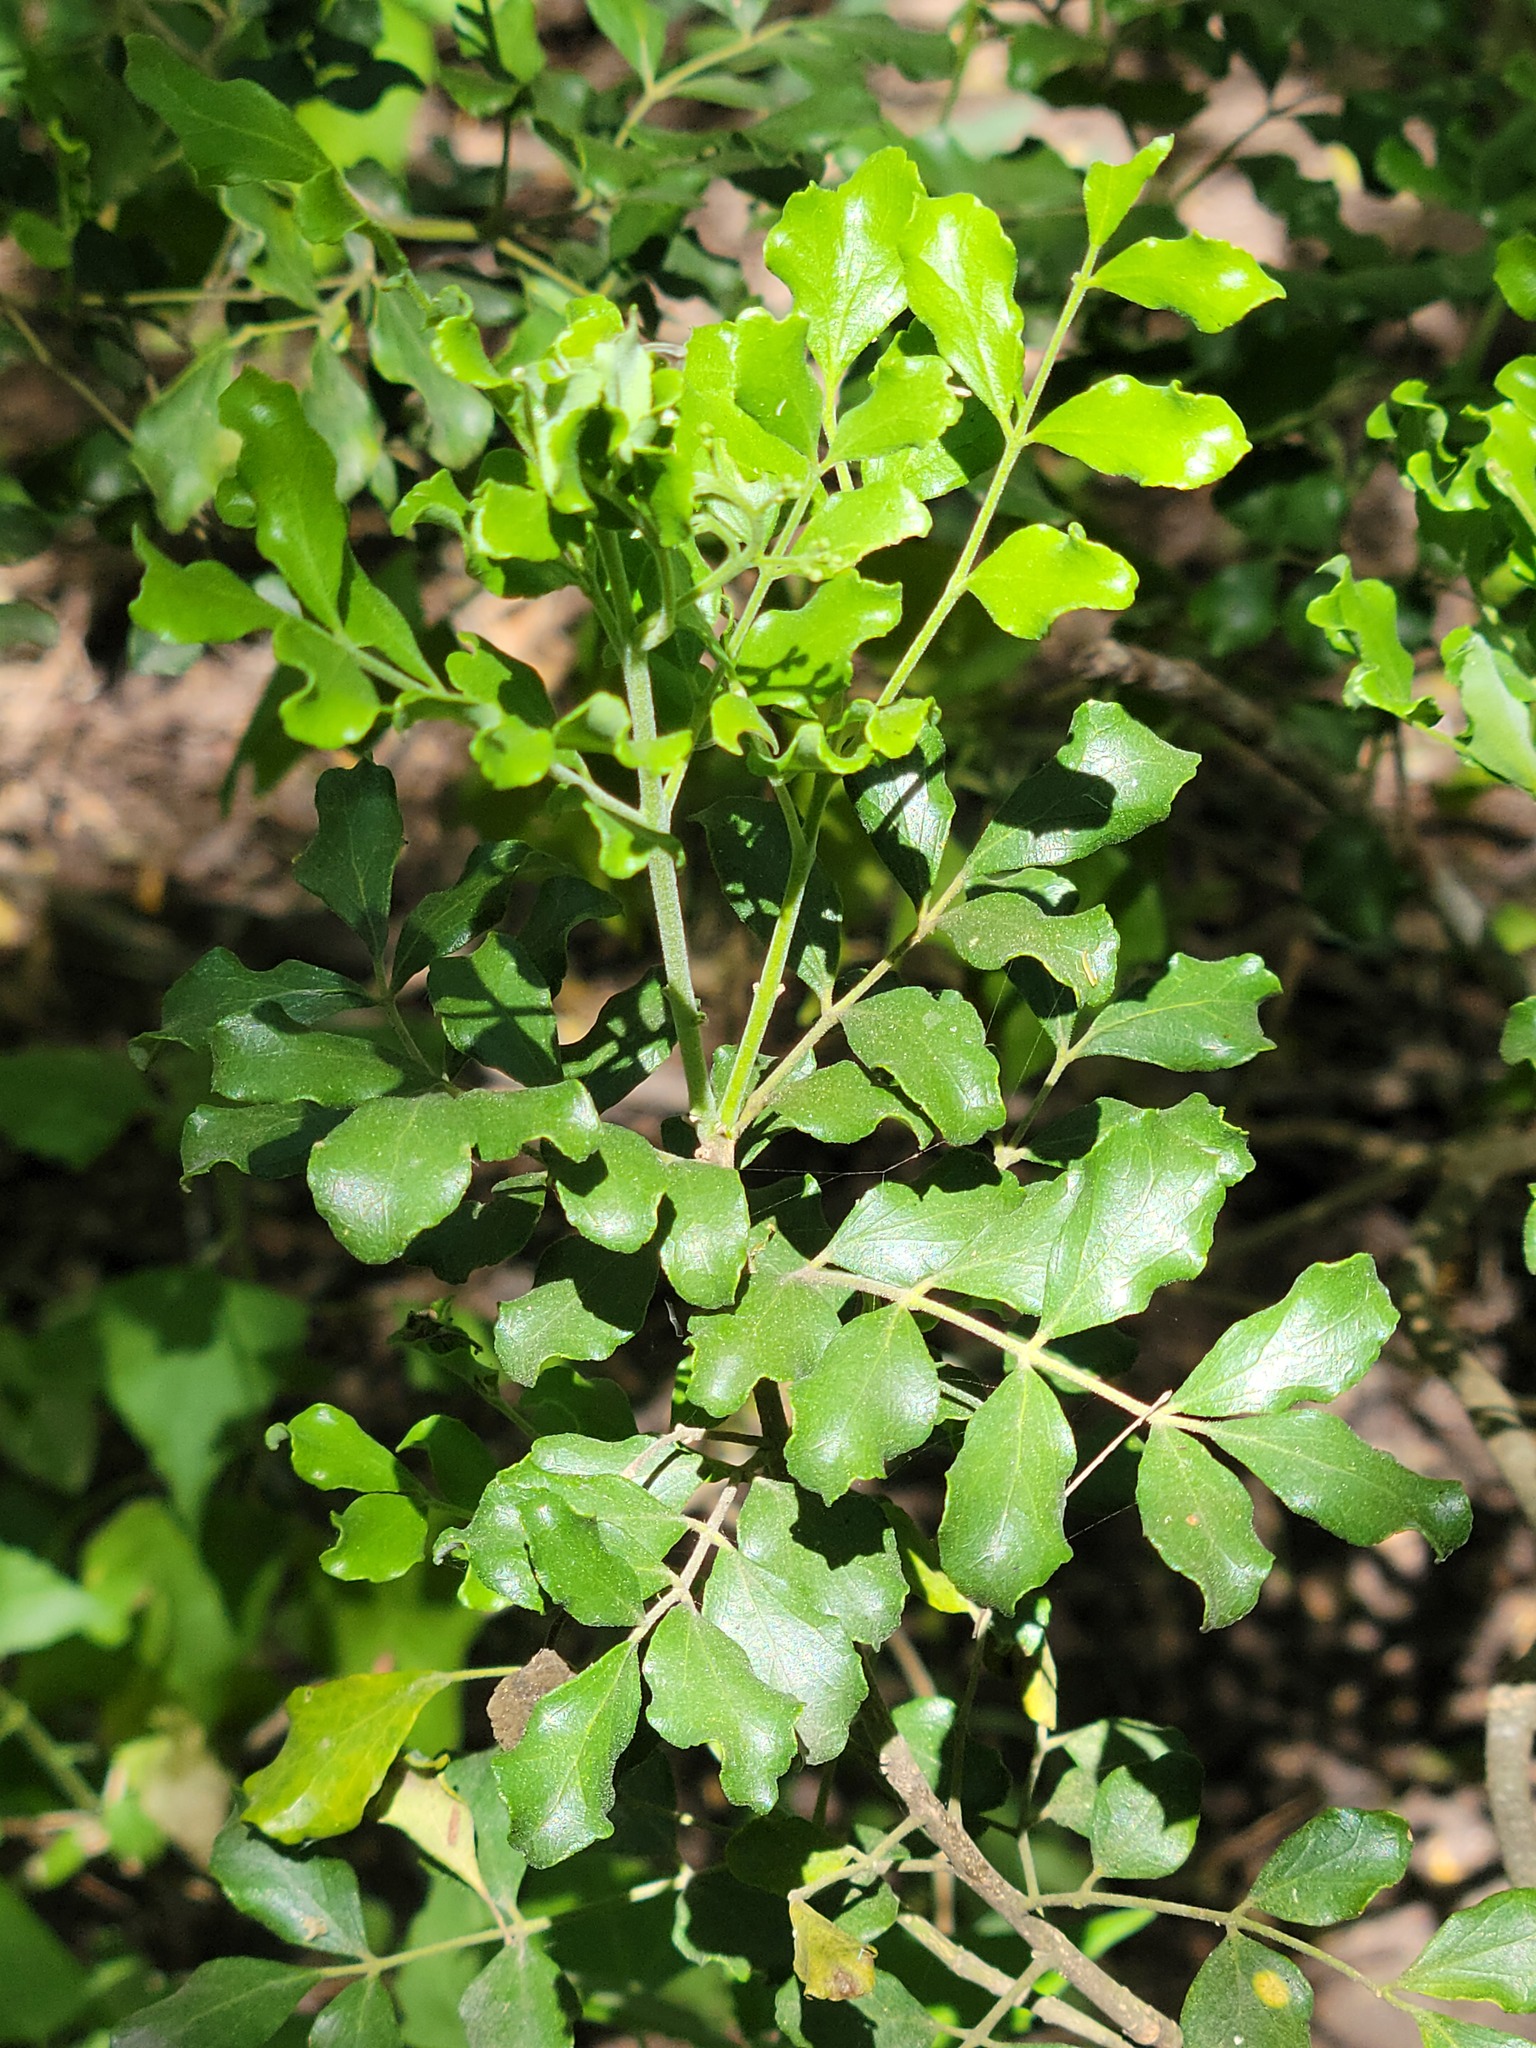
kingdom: Plantae
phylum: Tracheophyta
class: Magnoliopsida
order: Sapindales
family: Rutaceae
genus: Amyris
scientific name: Amyris madrensis
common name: Mountain torchwood
